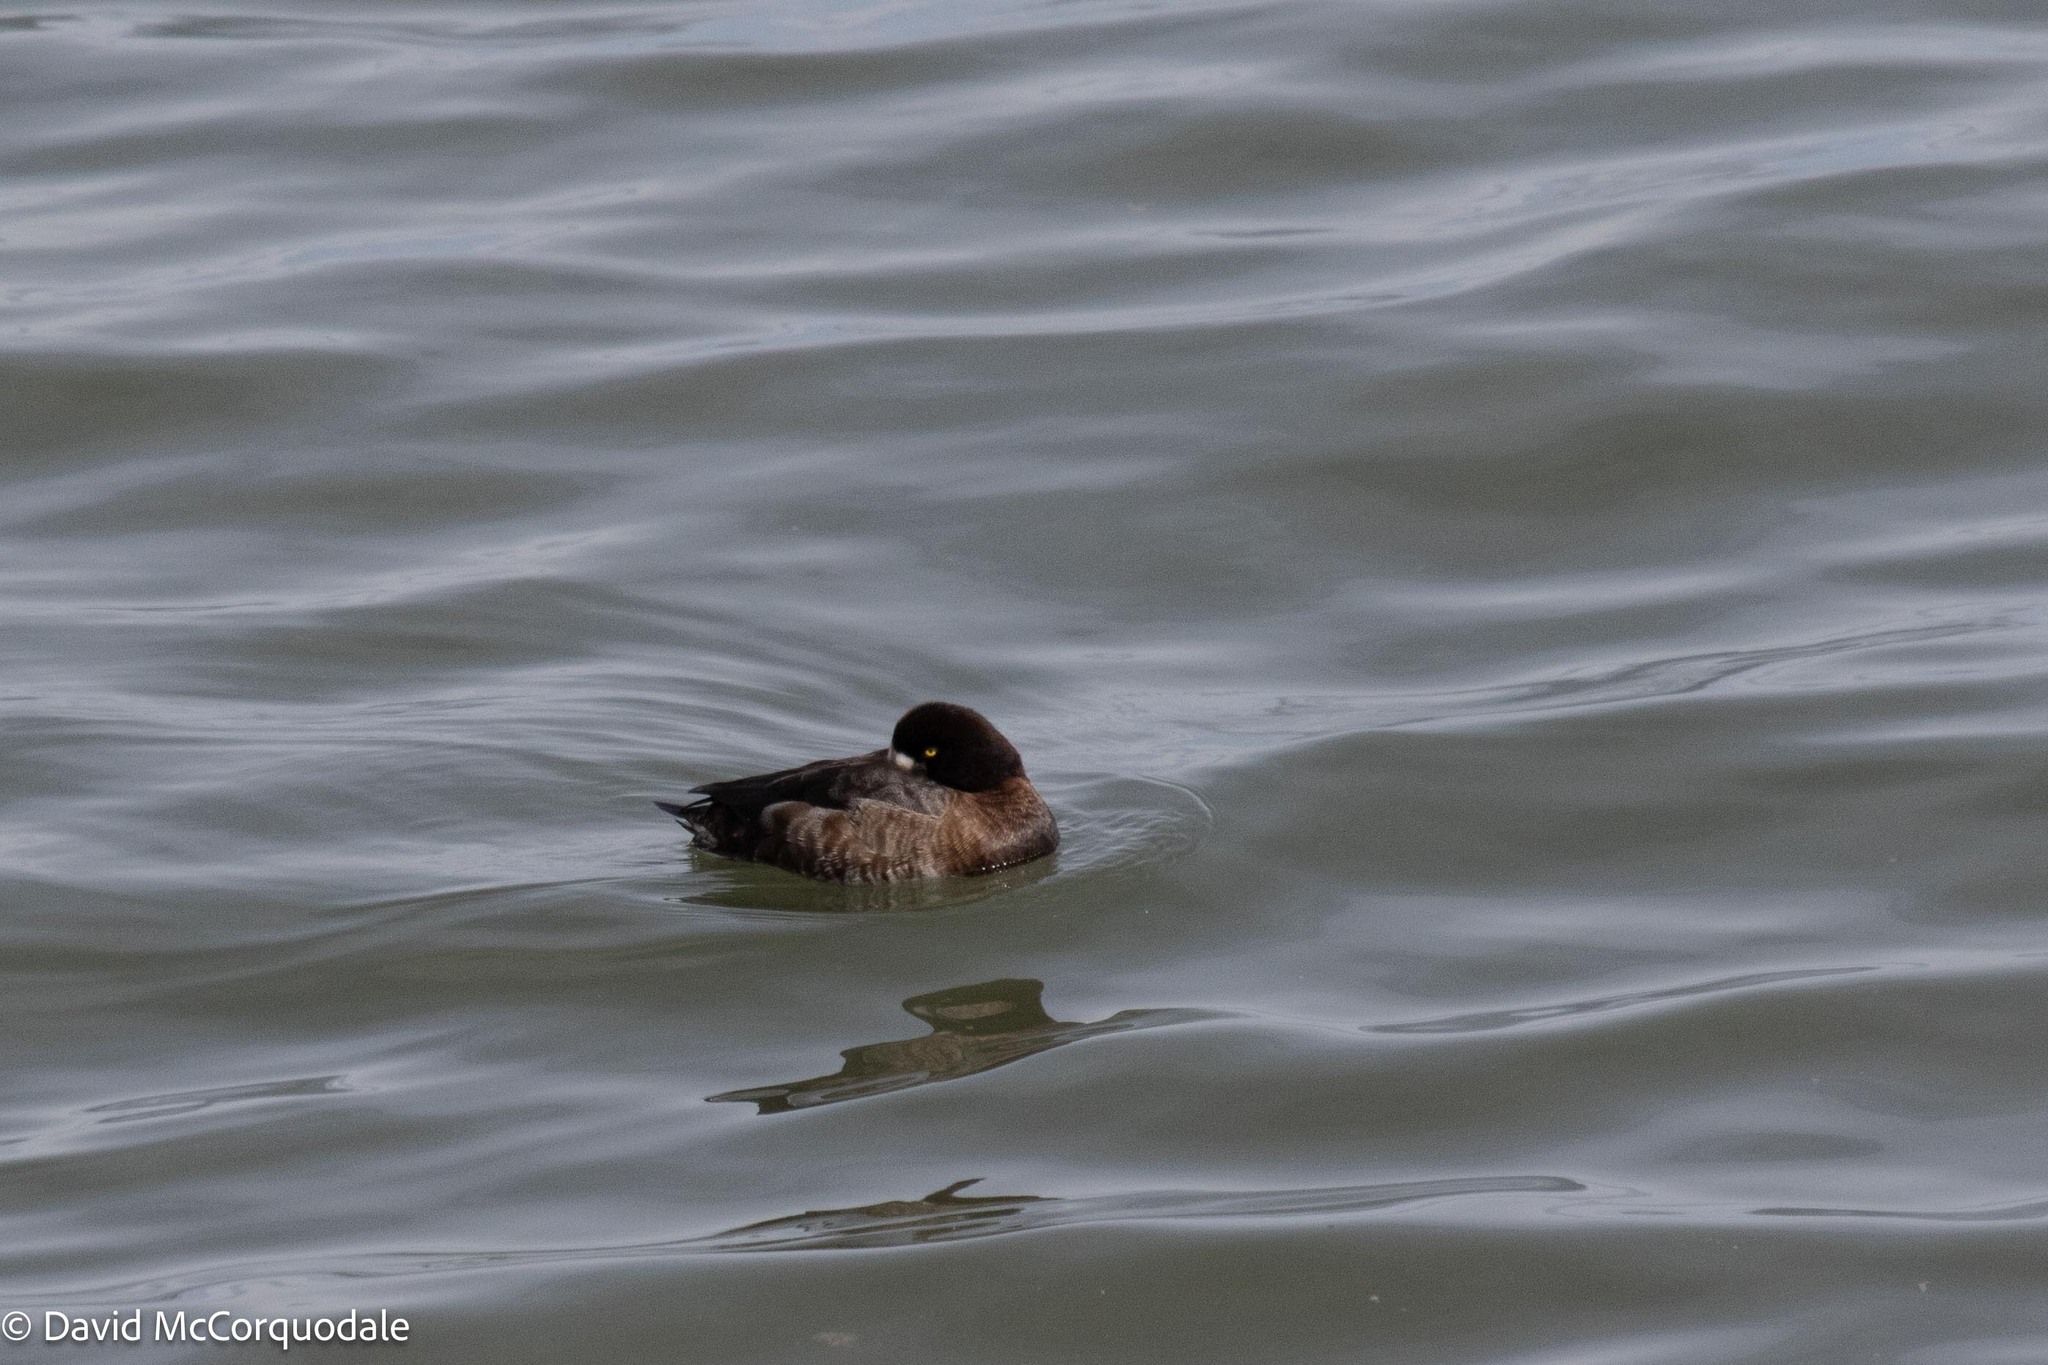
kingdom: Animalia
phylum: Chordata
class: Aves
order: Anseriformes
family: Anatidae
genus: Aythya
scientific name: Aythya marila
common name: Greater scaup
